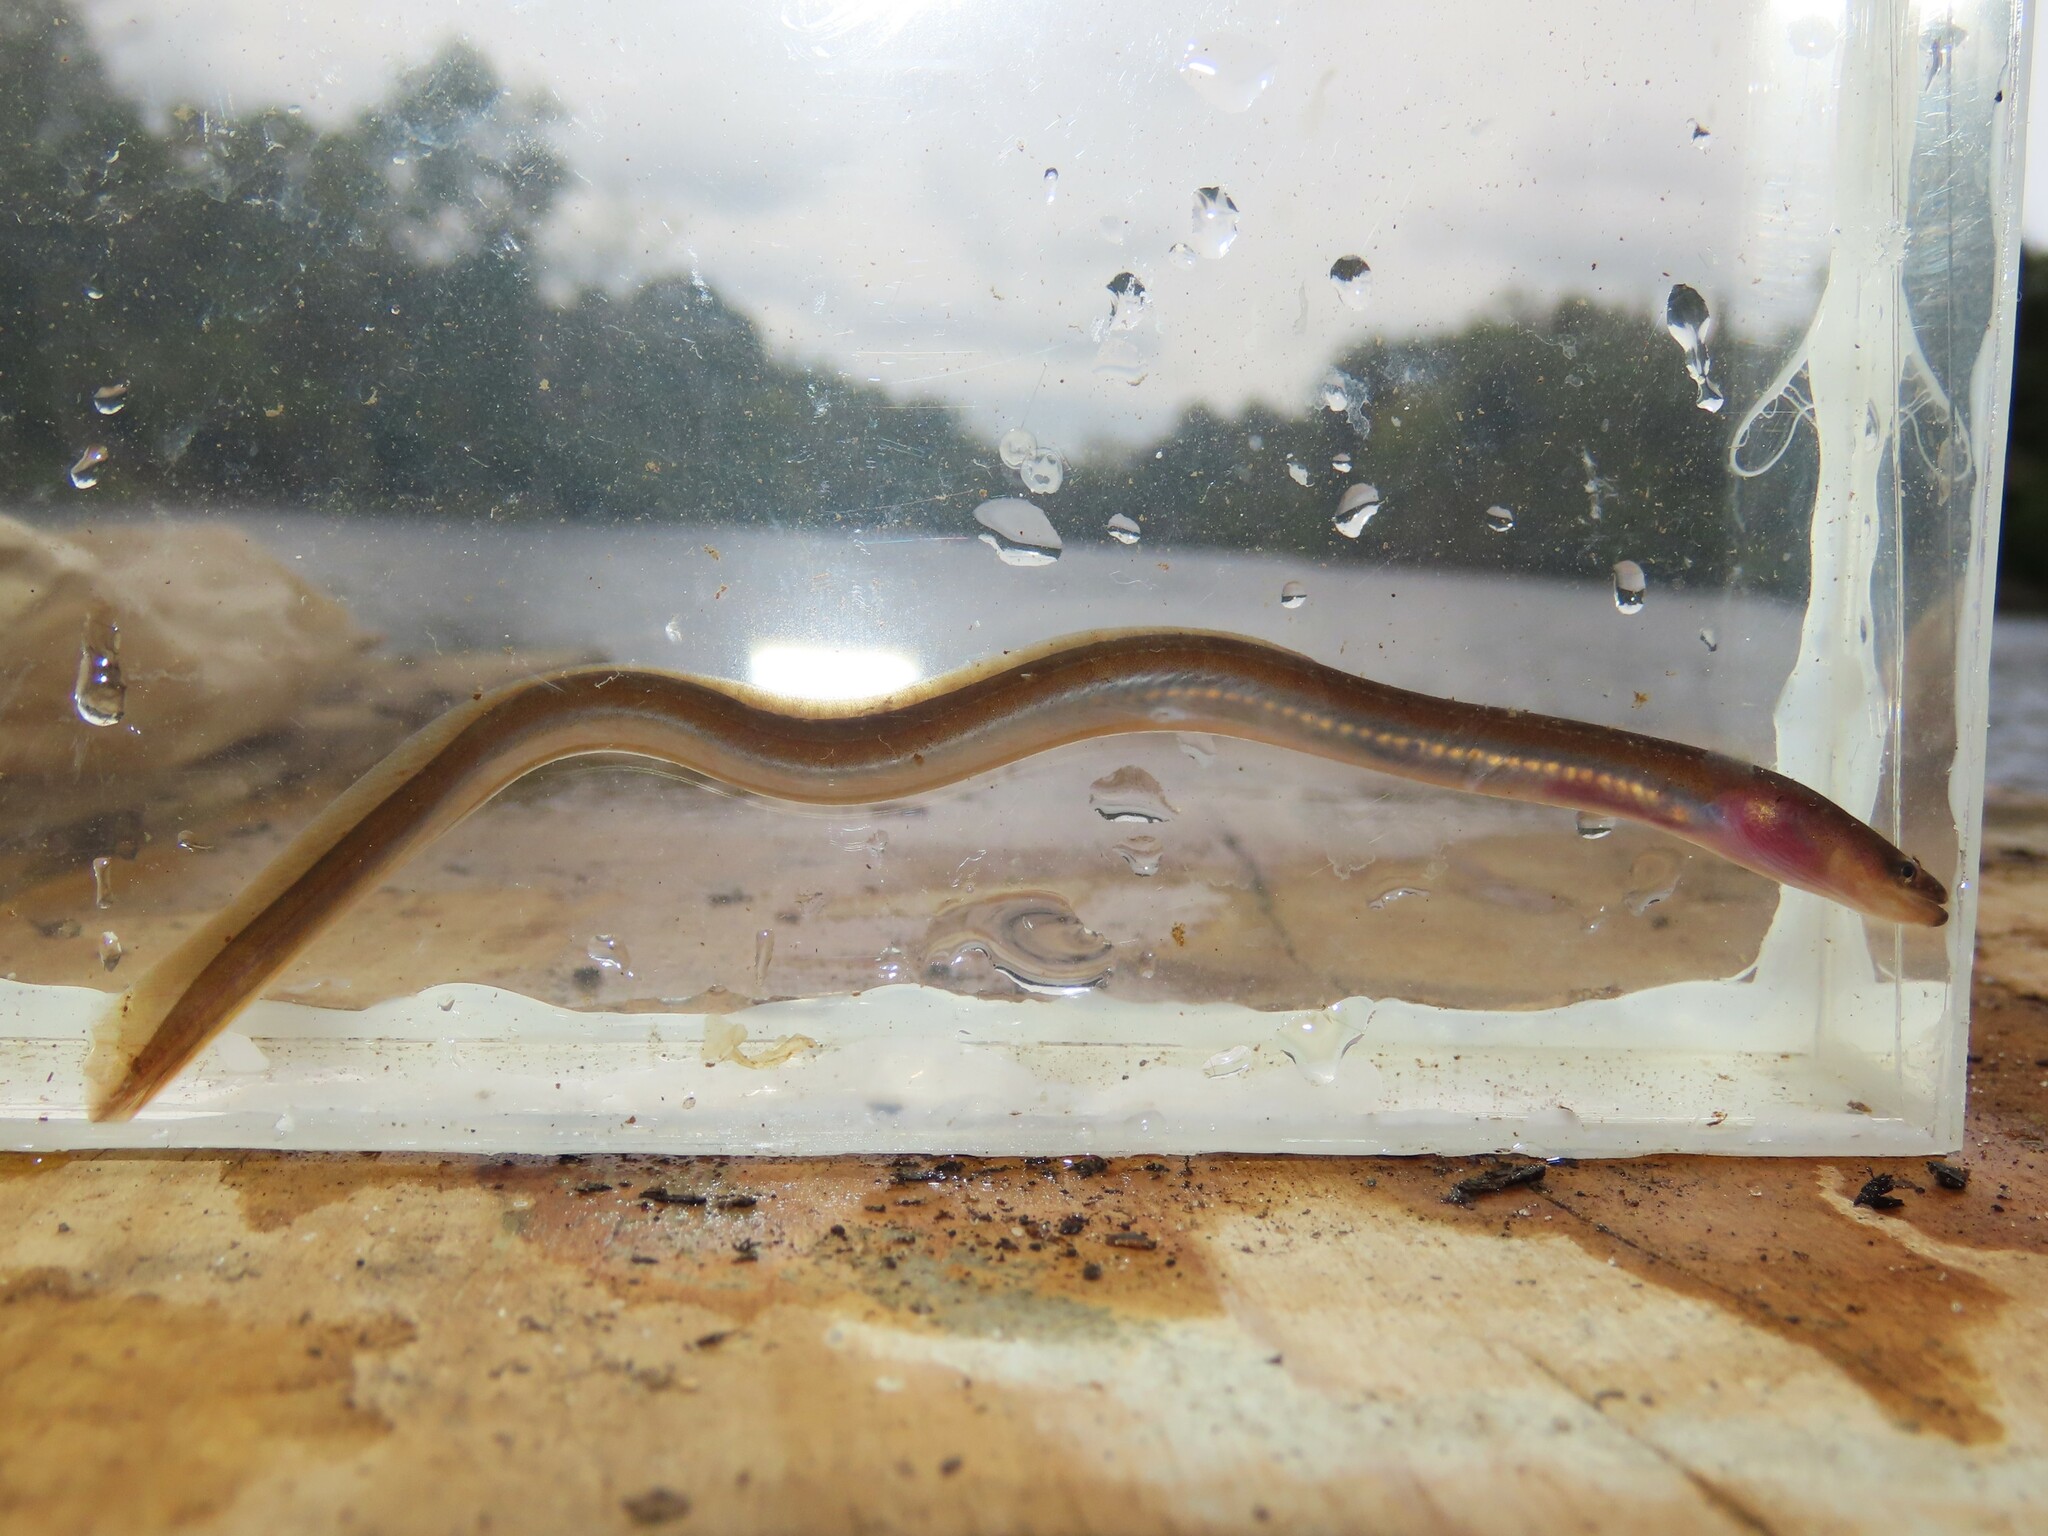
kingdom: Animalia
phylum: Chordata
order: Anguilliformes
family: Anguillidae
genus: Anguilla
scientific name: Anguilla rostrata
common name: American eel
